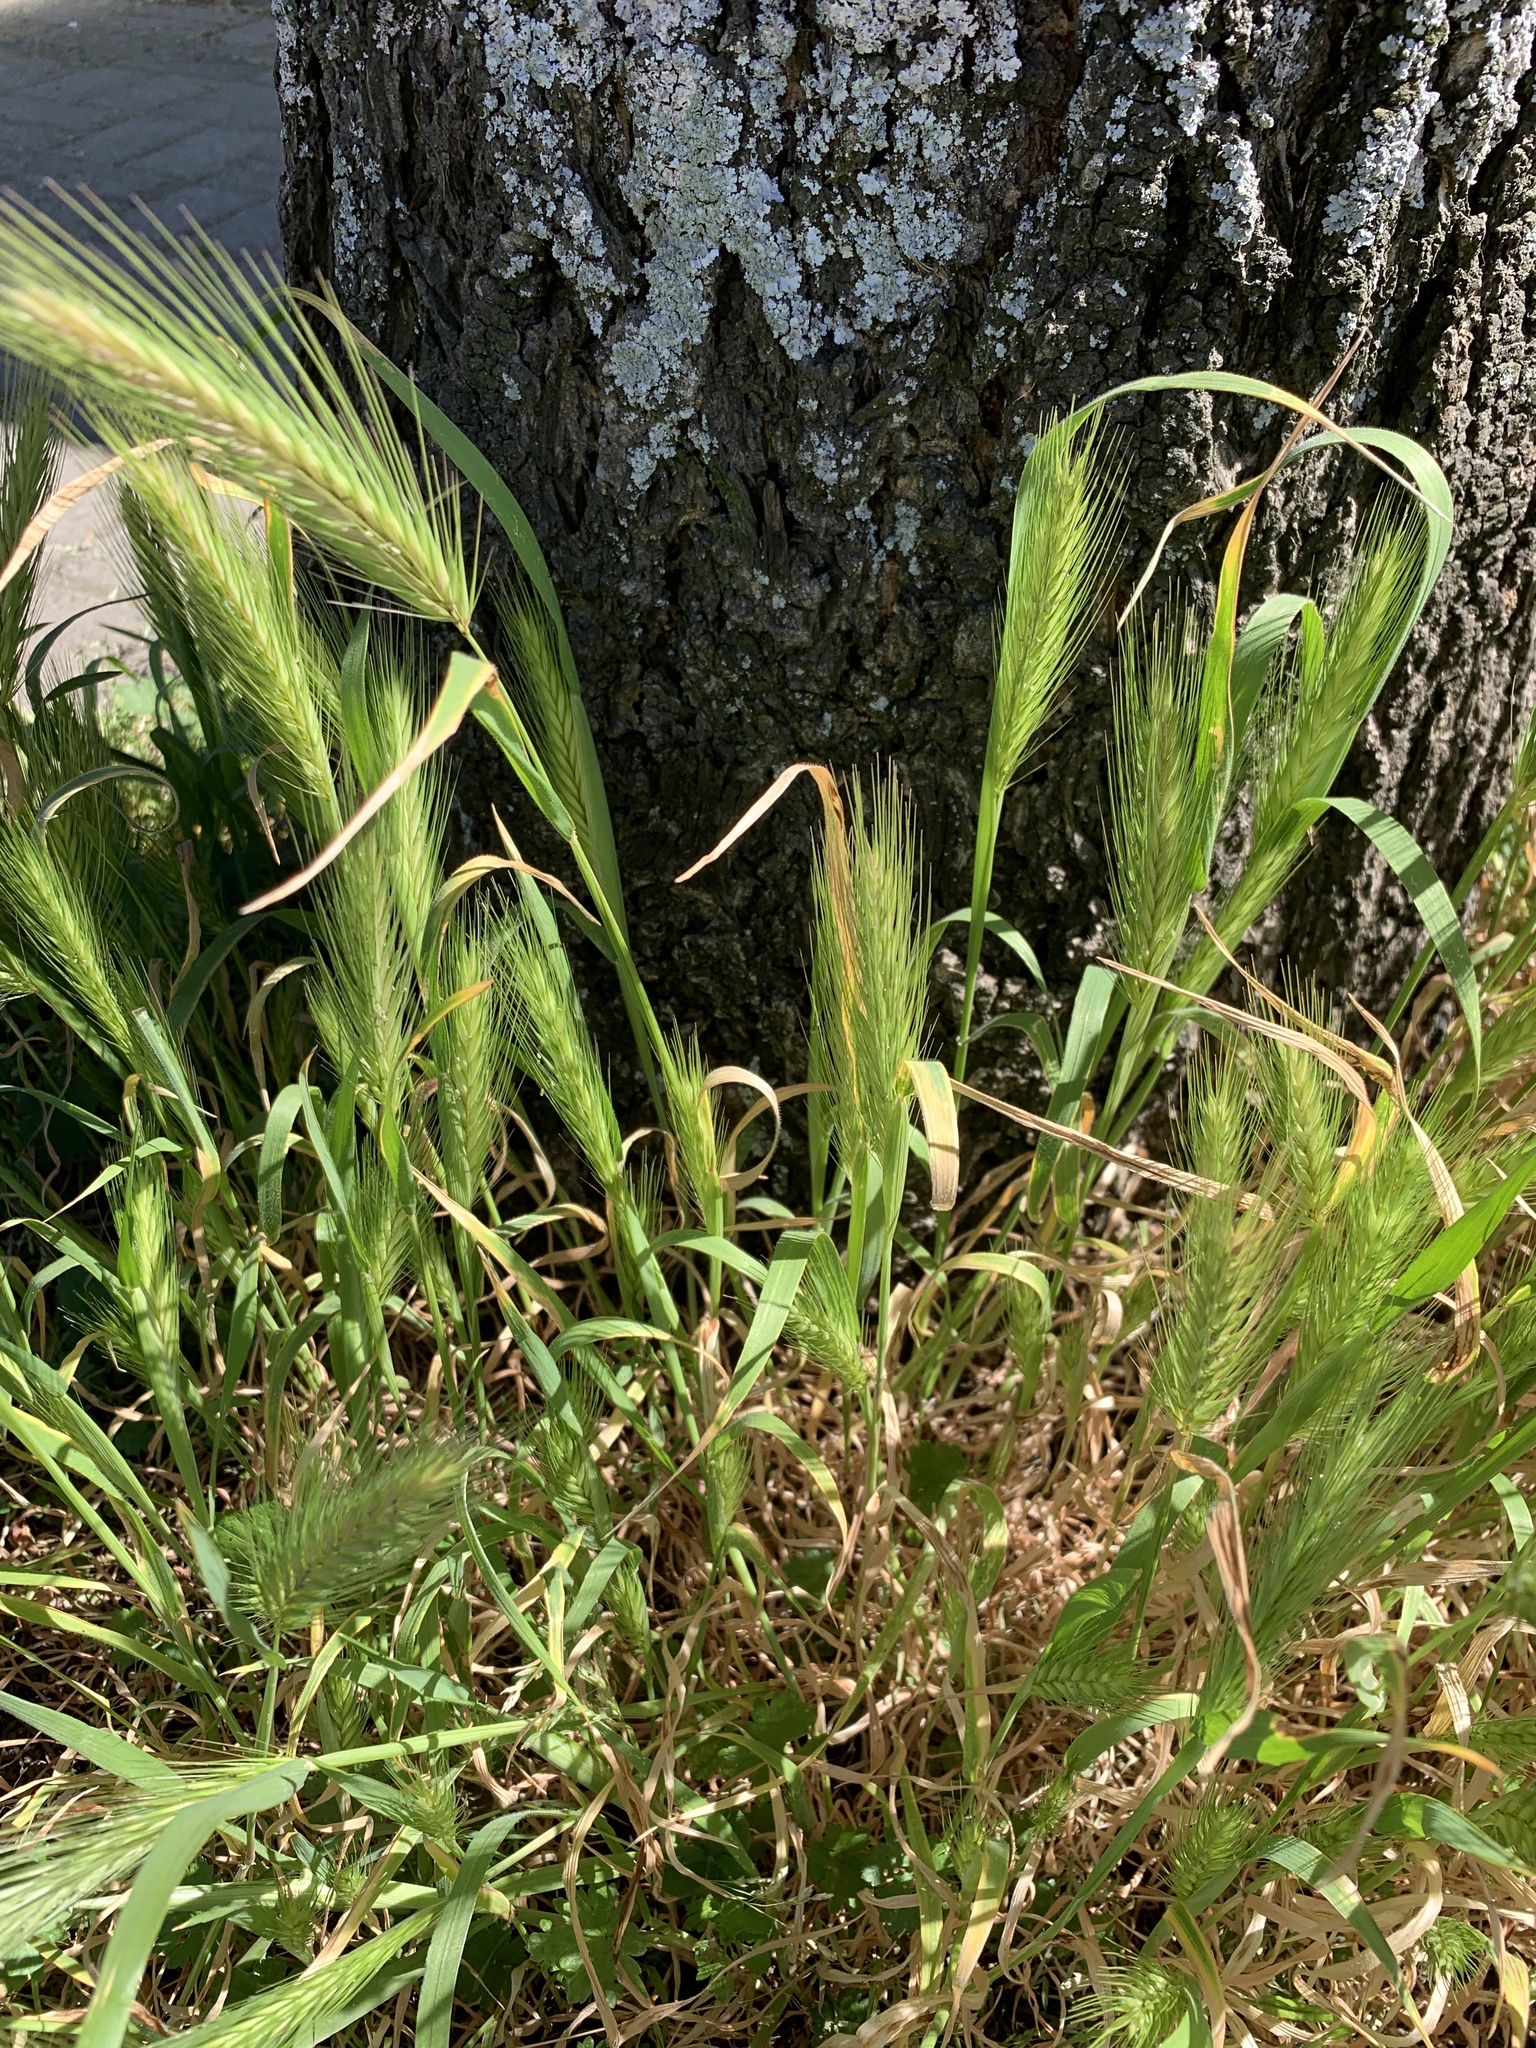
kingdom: Plantae
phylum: Tracheophyta
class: Liliopsida
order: Poales
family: Poaceae
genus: Hordeum
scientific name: Hordeum murinum
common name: Wall barley
